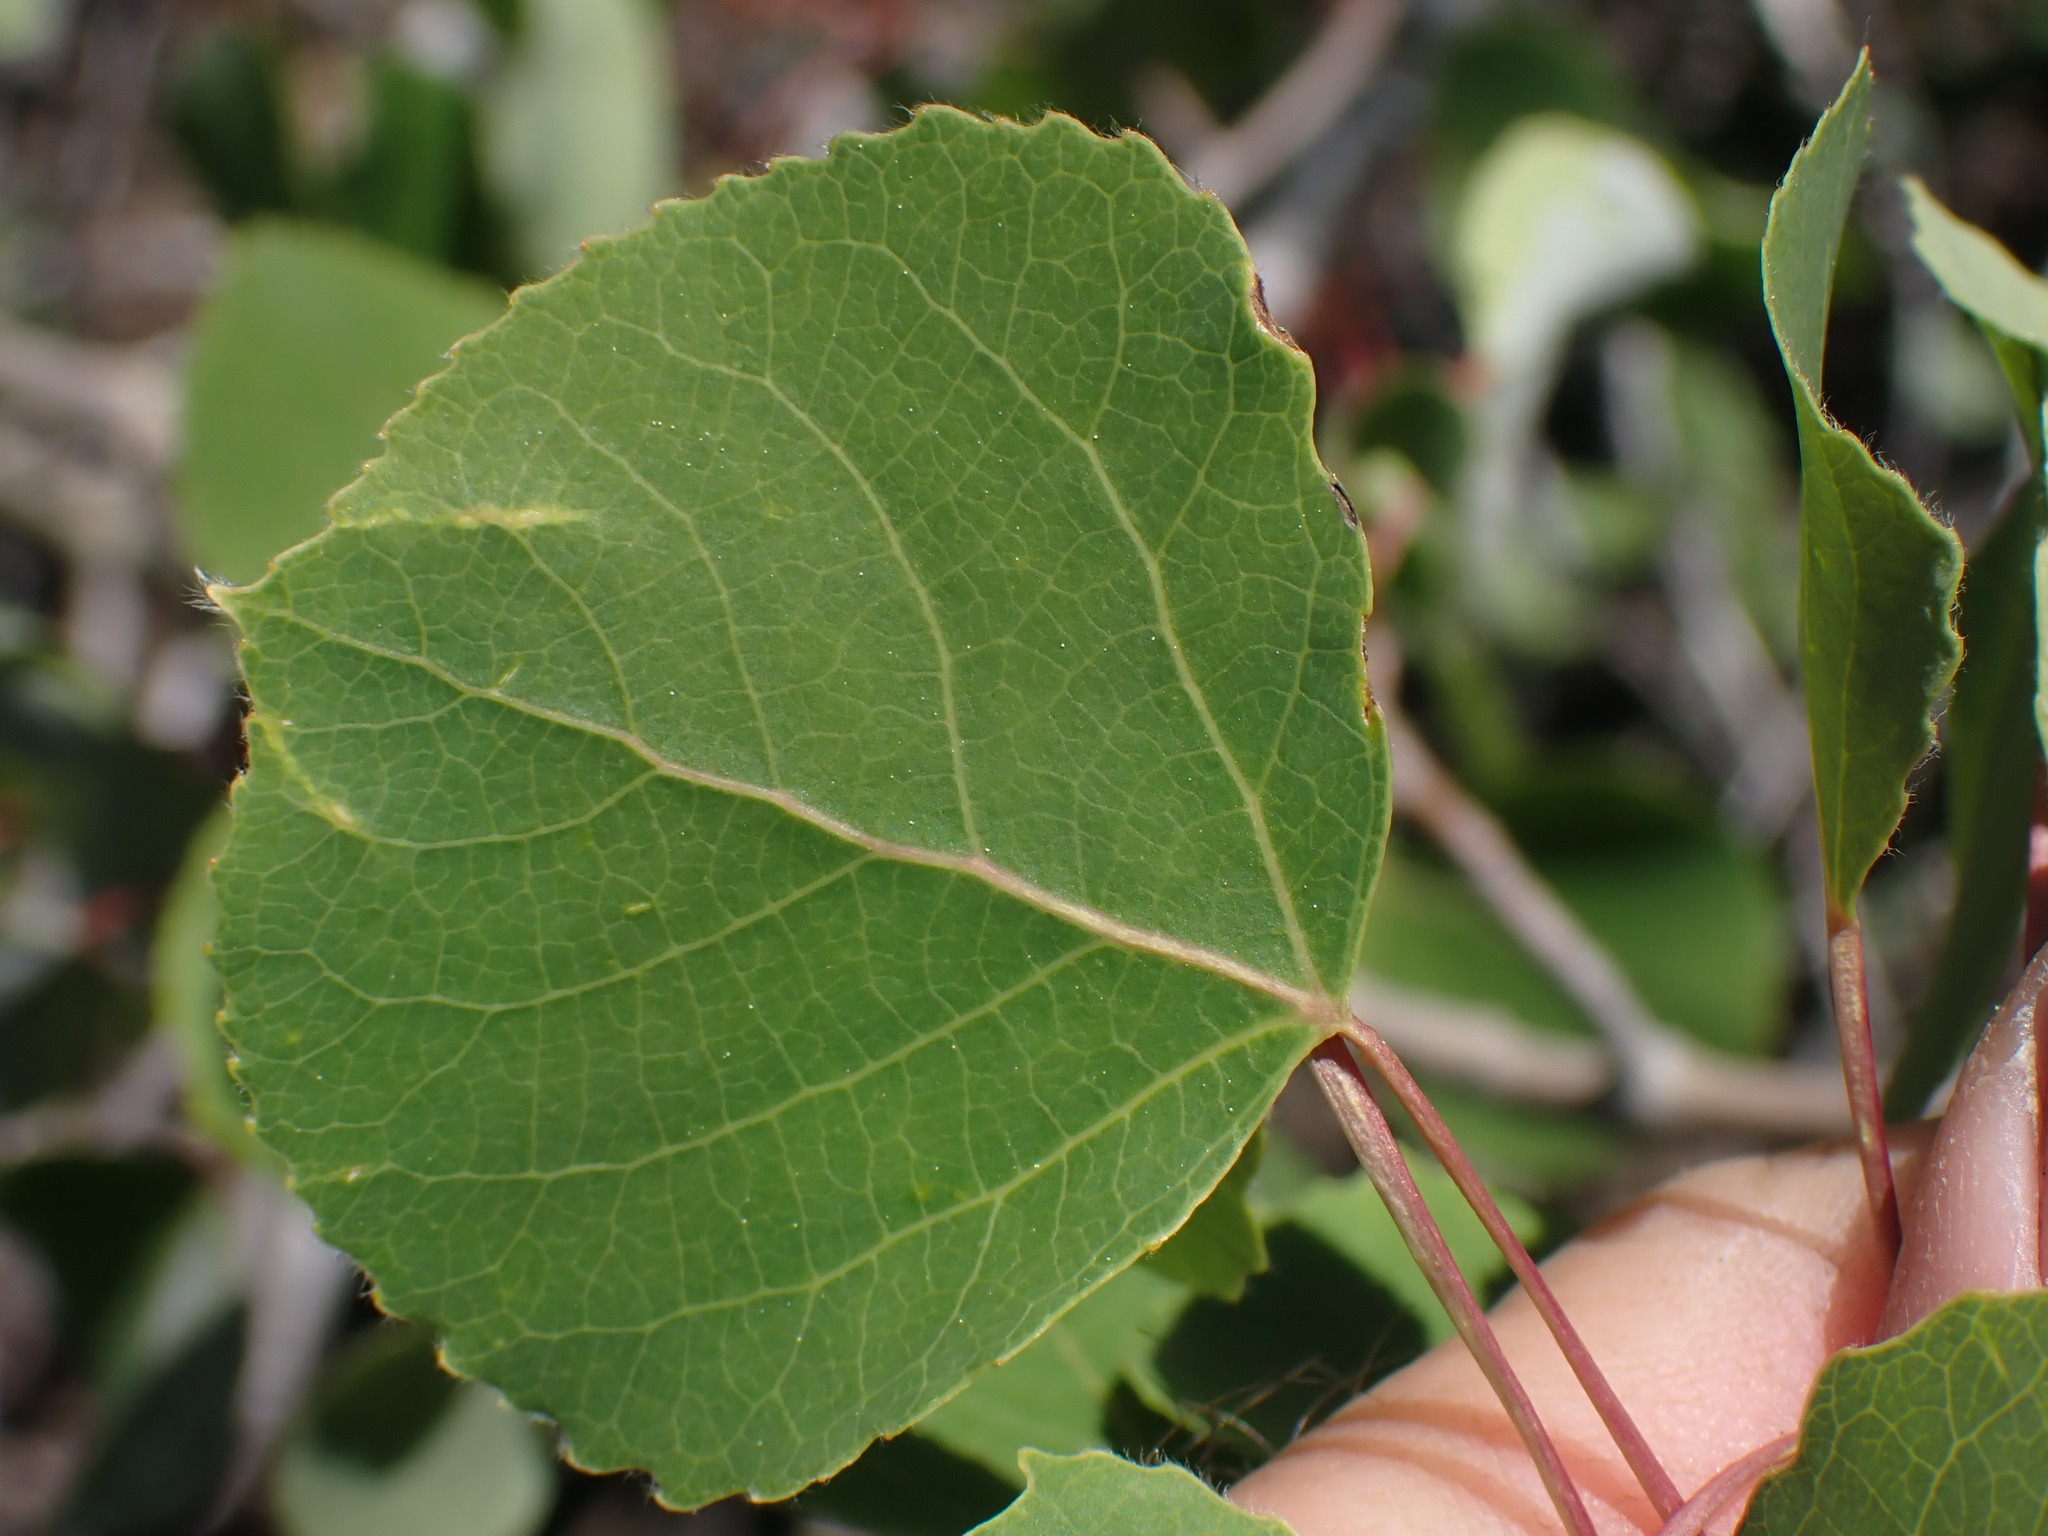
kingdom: Plantae
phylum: Tracheophyta
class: Magnoliopsida
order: Malpighiales
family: Salicaceae
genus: Populus
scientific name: Populus tremuloides
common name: Quaking aspen
